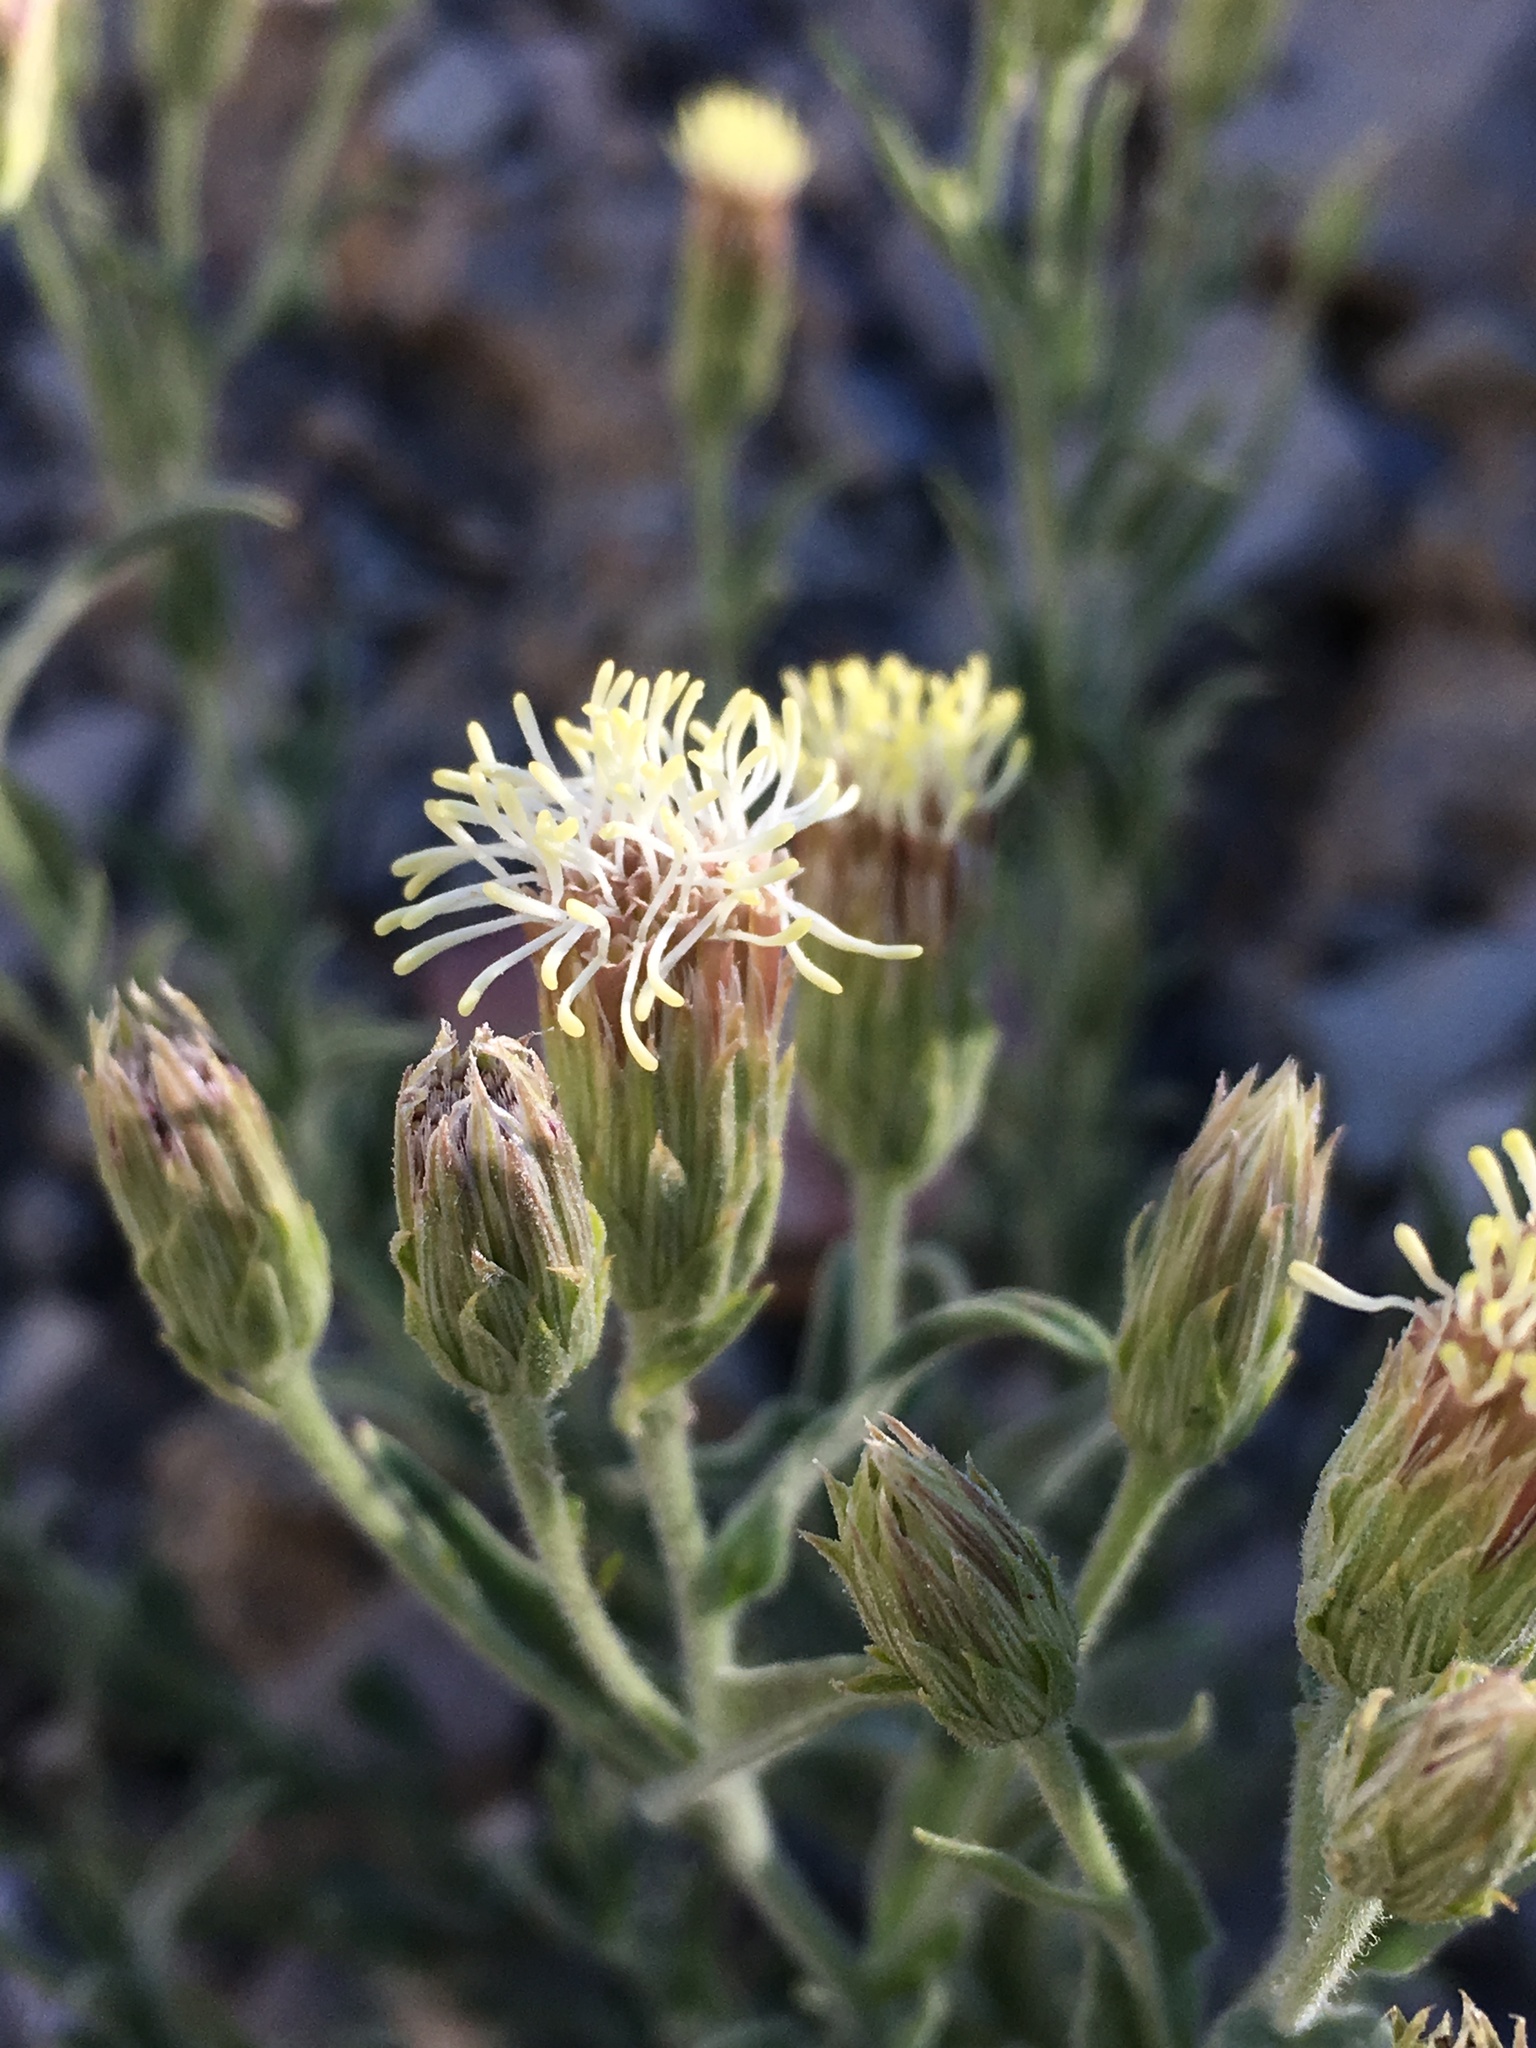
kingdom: Plantae
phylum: Tracheophyta
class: Magnoliopsida
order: Asterales
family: Asteraceae
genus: Brickellia
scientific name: Brickellia oblongifolia
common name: Mojave brickellbush
